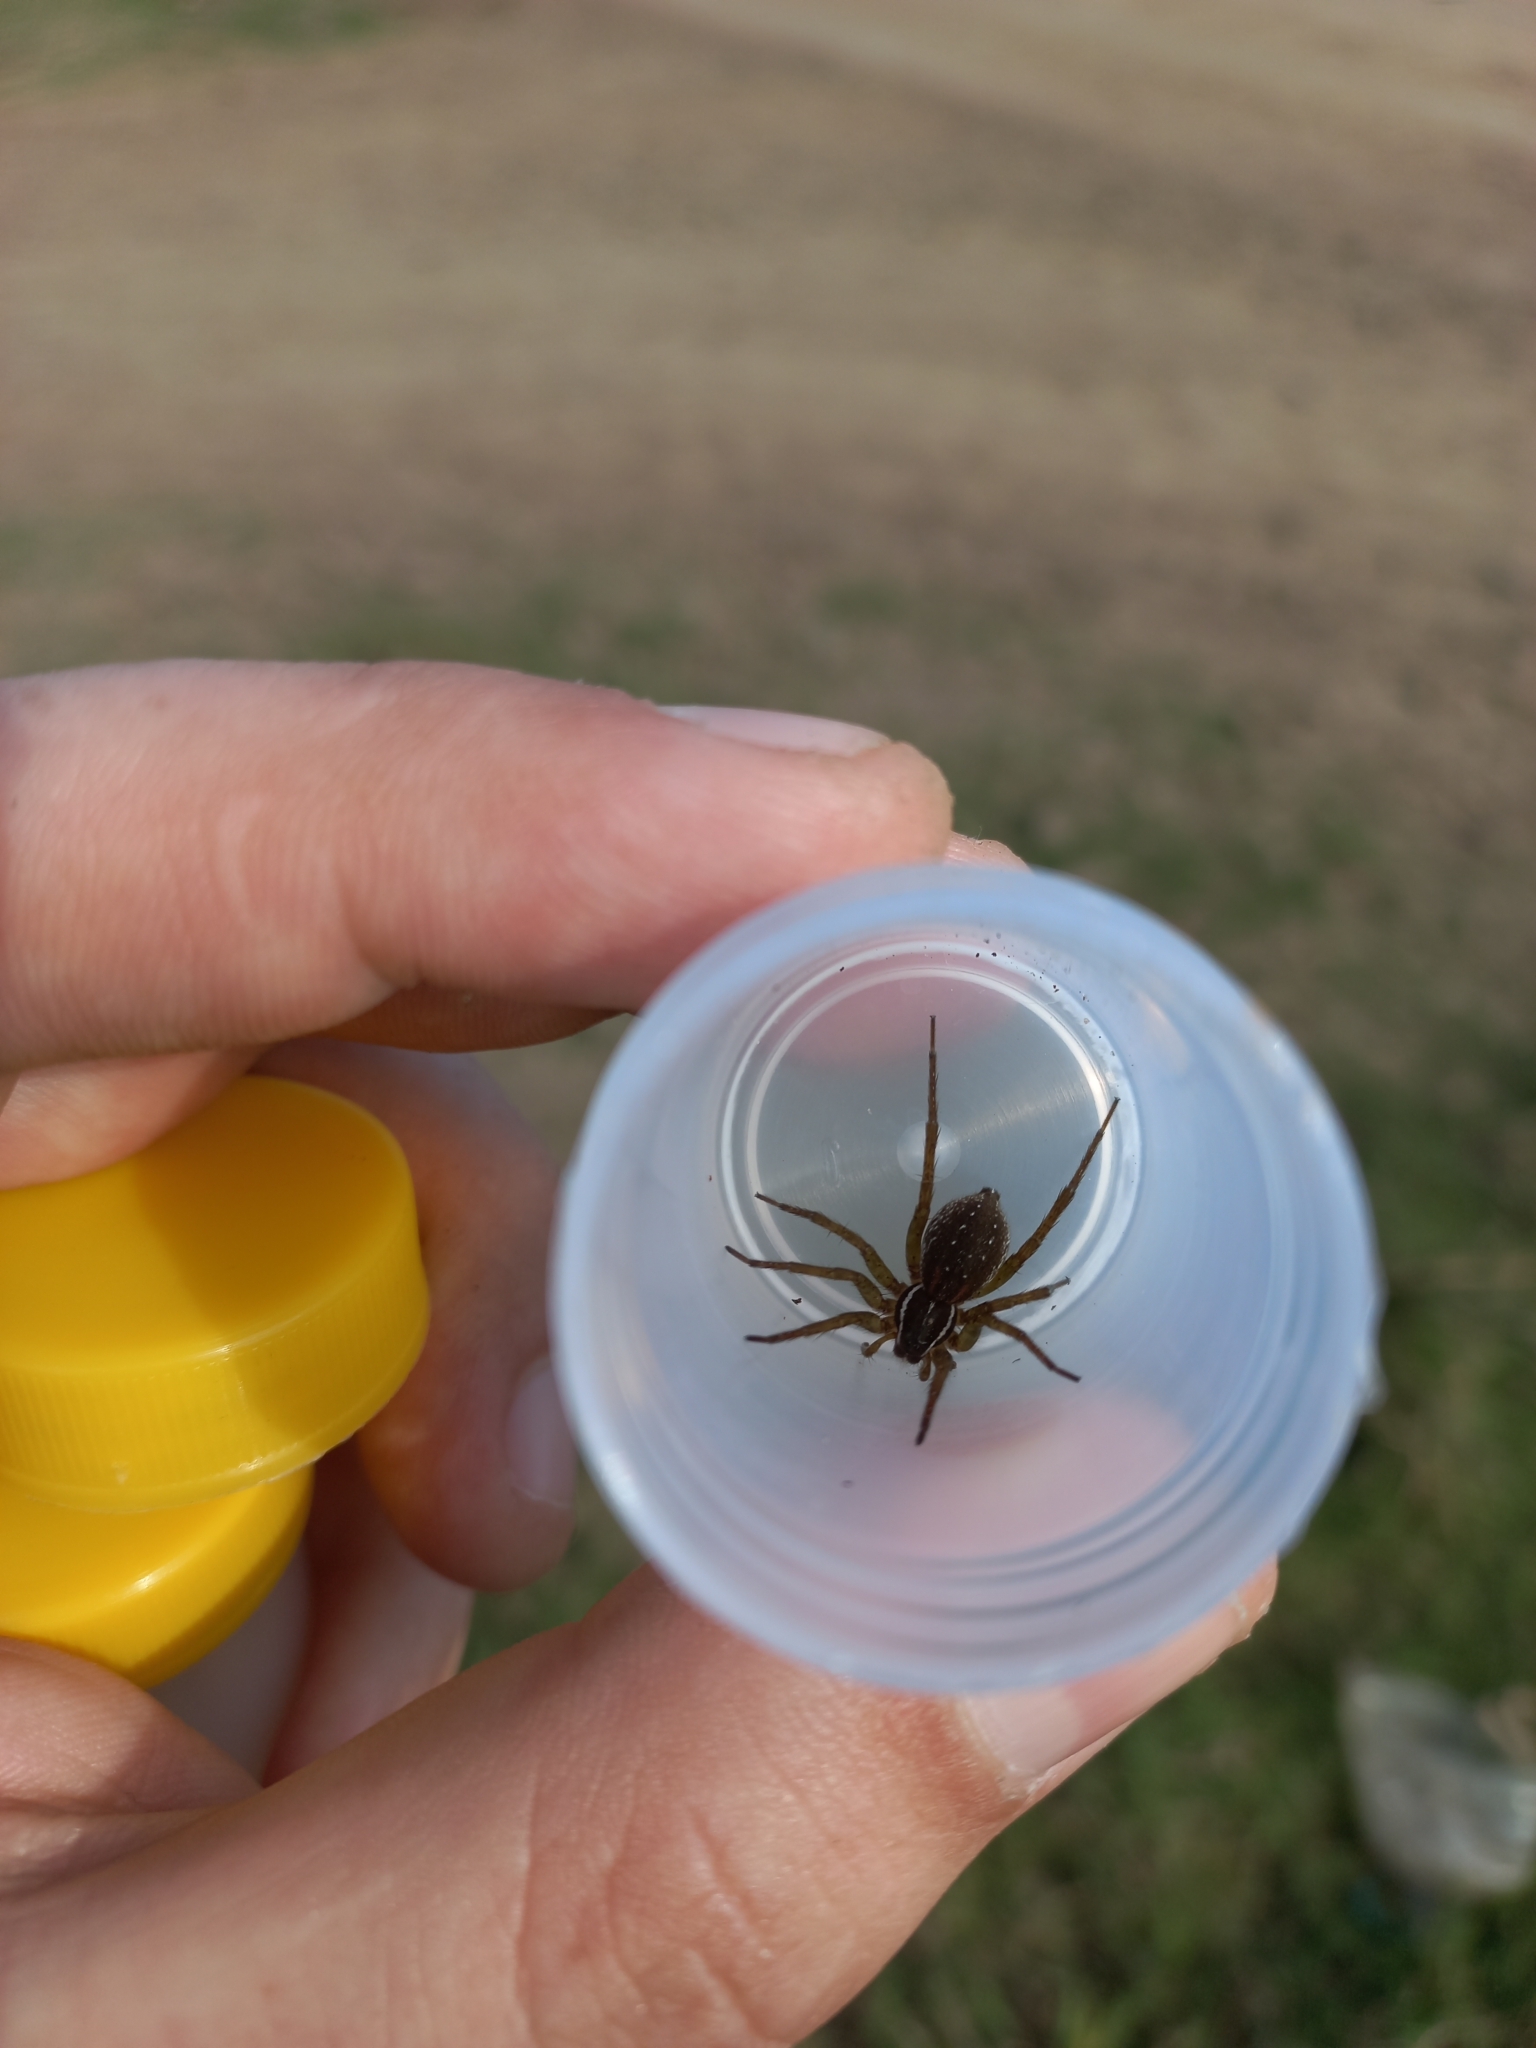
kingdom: Animalia
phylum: Arthropoda
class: Arachnida
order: Araneae
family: Lycosidae
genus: Diapontia
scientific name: Diapontia uruguayensis
